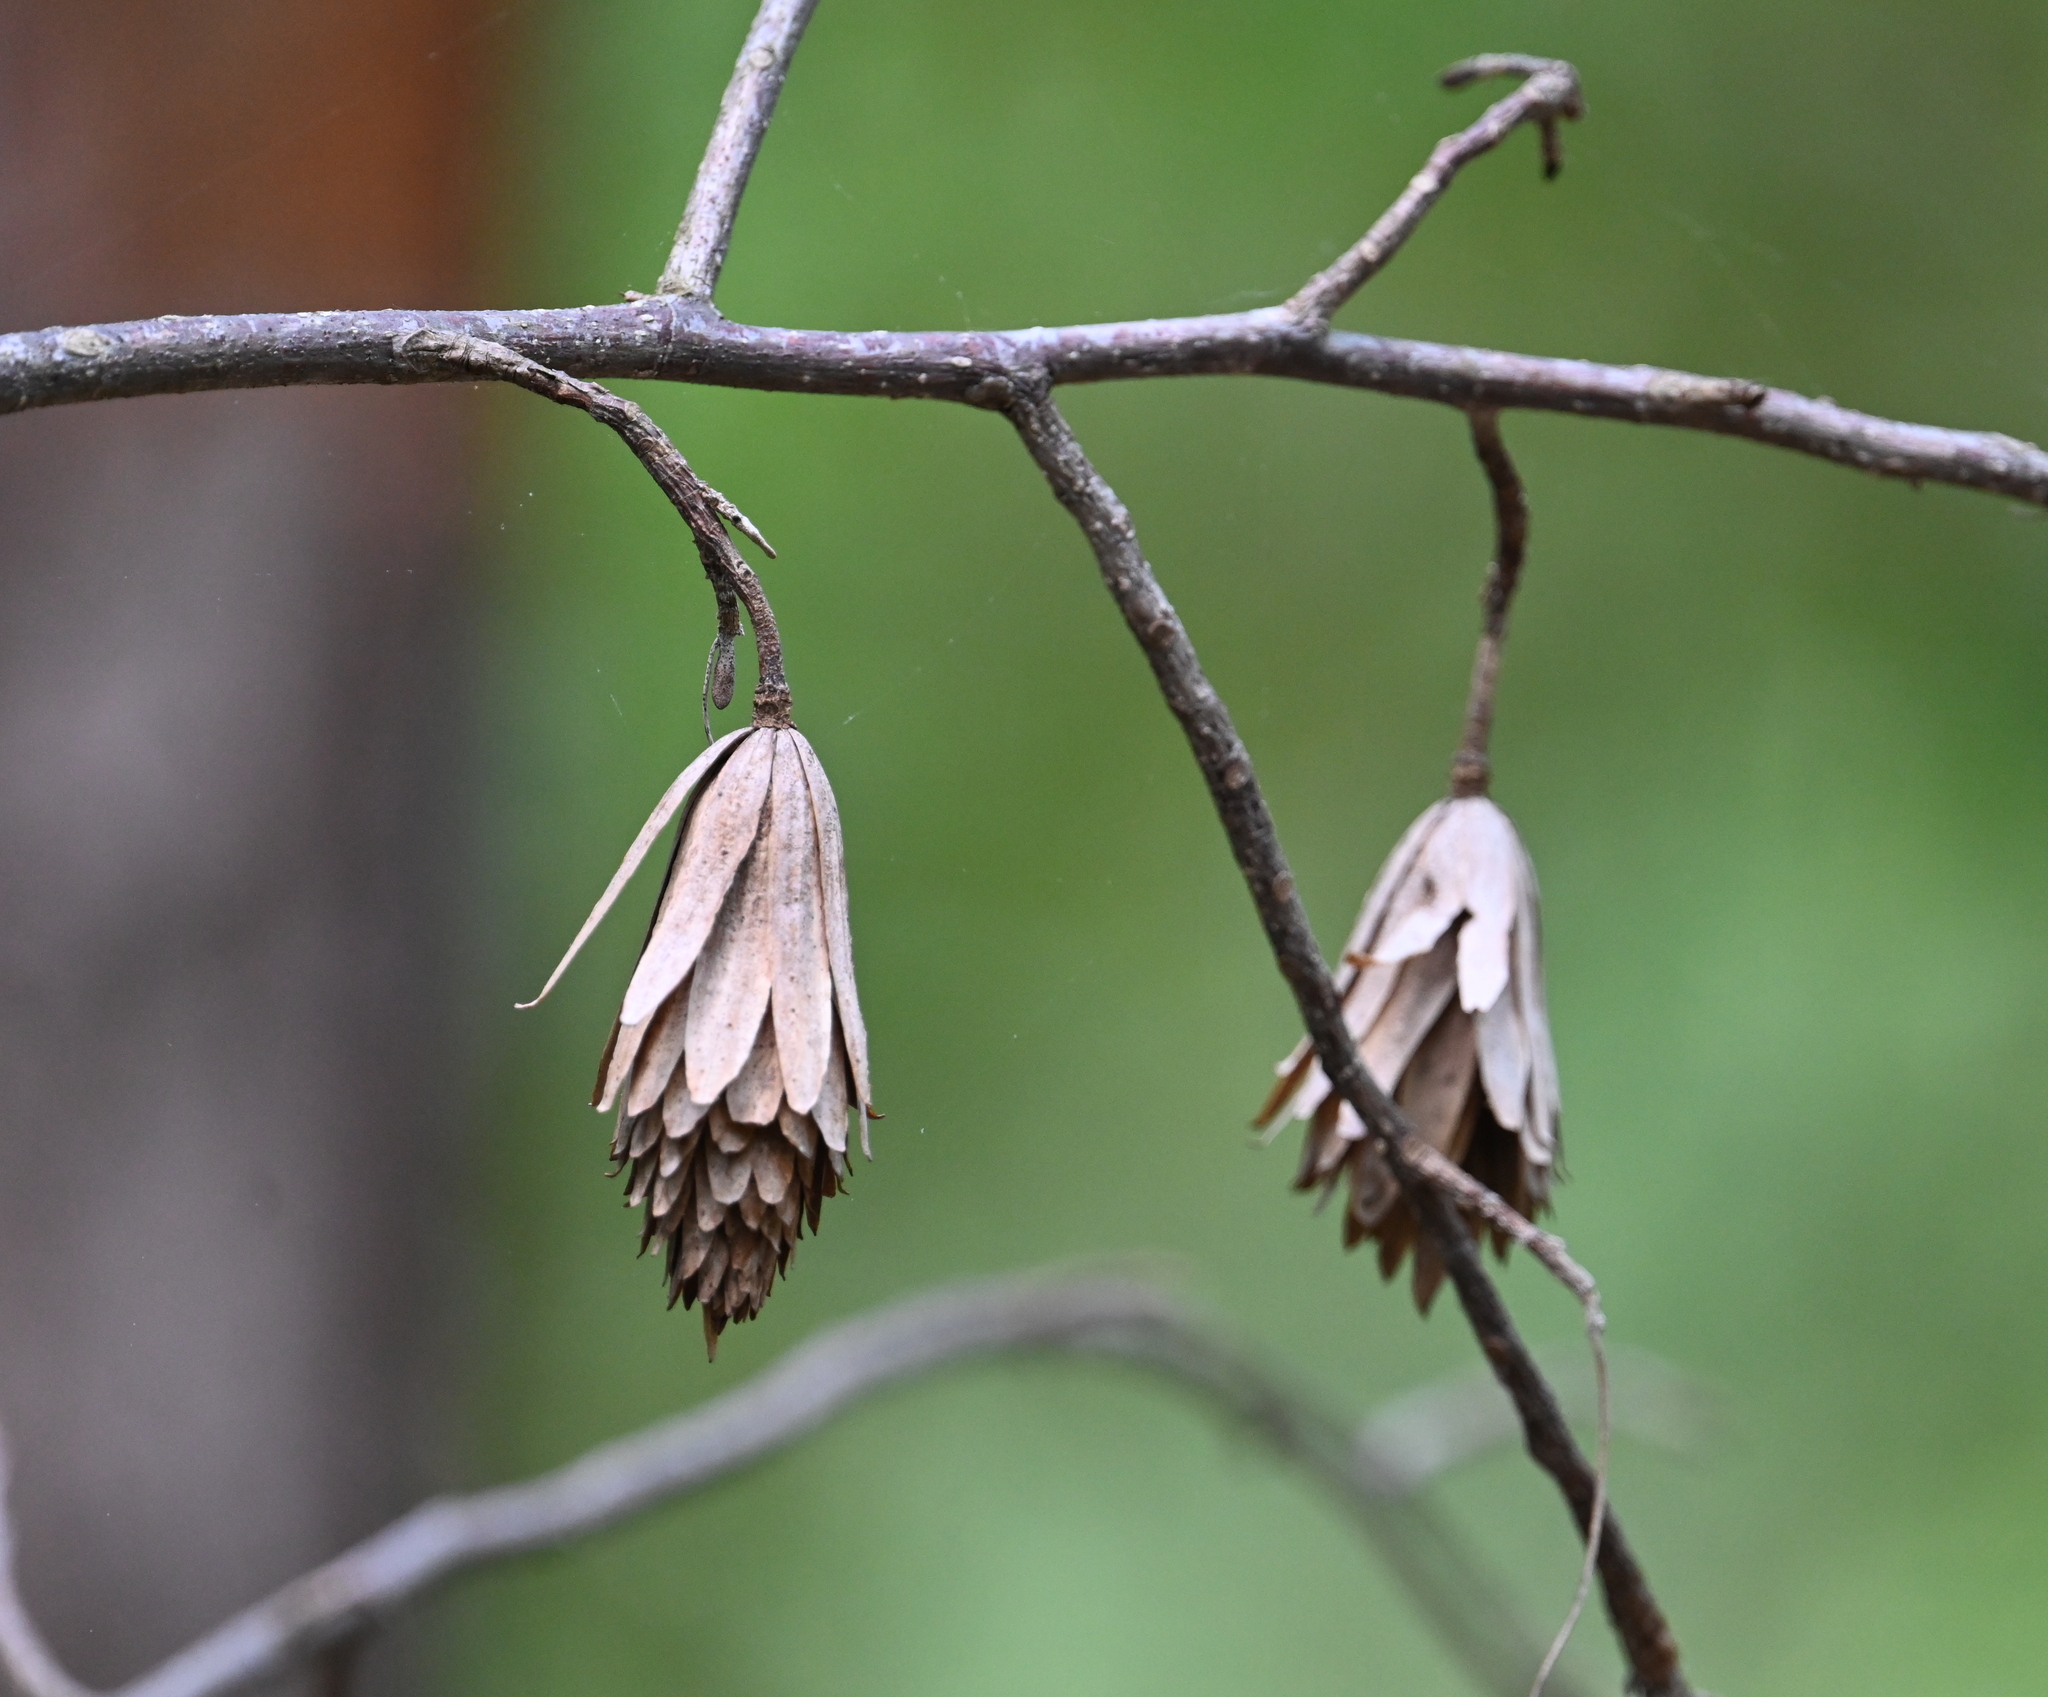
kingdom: Plantae
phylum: Tracheophyta
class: Magnoliopsida
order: Magnoliales
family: Magnoliaceae
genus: Liriodendron
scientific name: Liriodendron tulipifera
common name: Tulip tree
